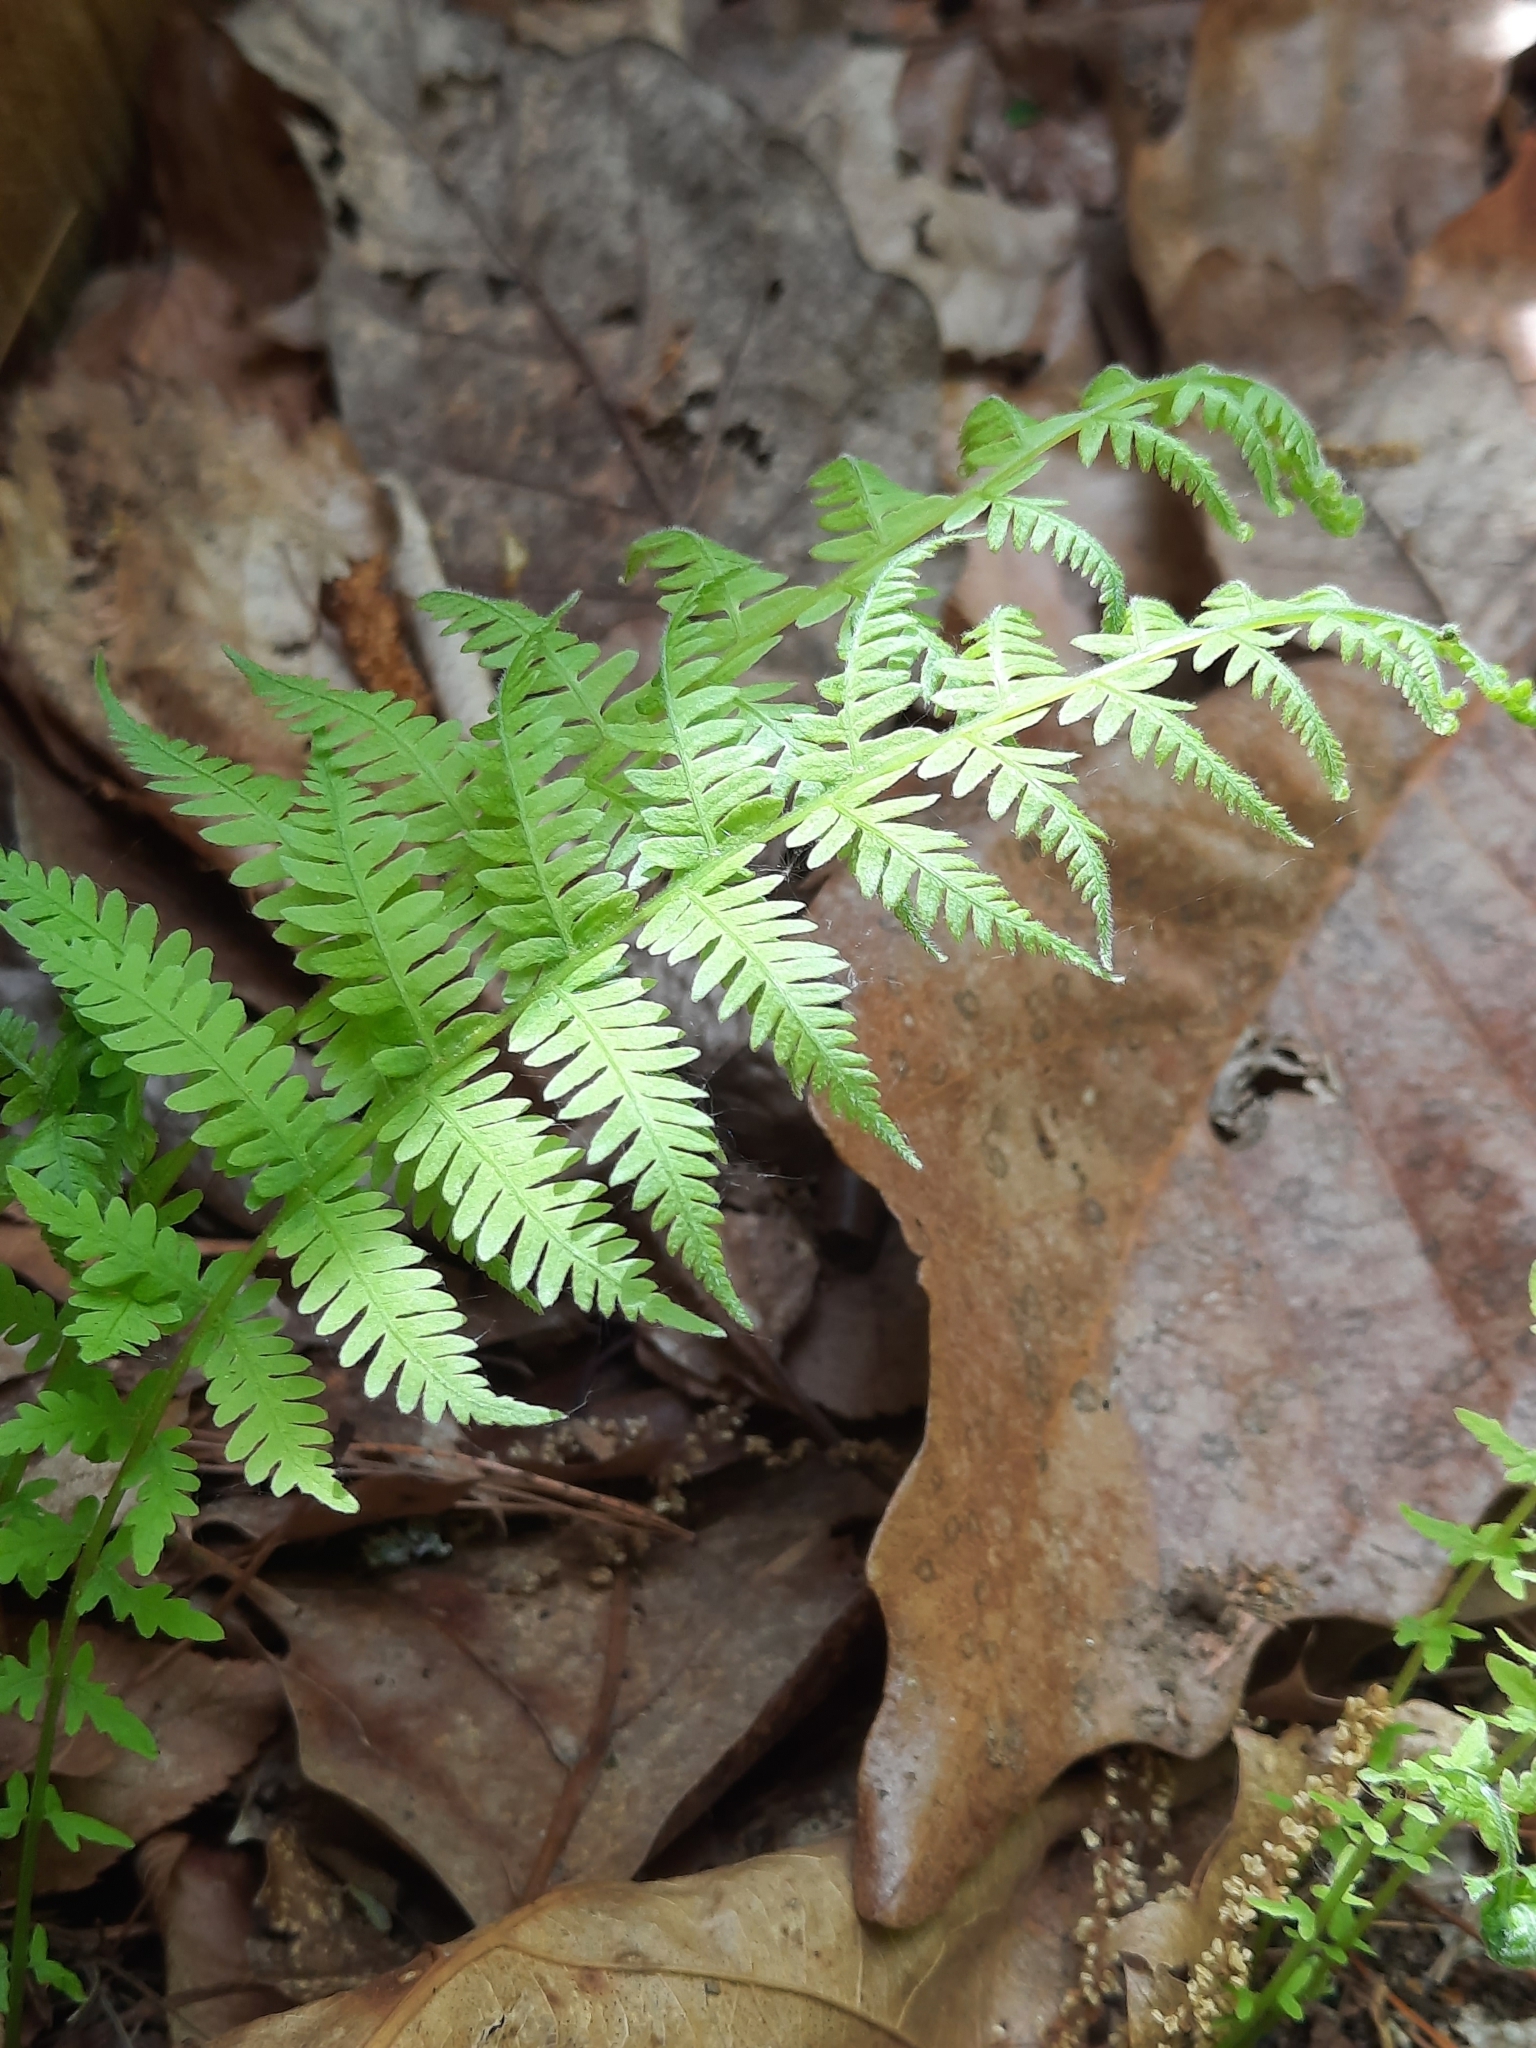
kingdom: Plantae
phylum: Tracheophyta
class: Polypodiopsida
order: Polypodiales
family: Thelypteridaceae
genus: Amauropelta
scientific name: Amauropelta noveboracensis
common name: New york fern
